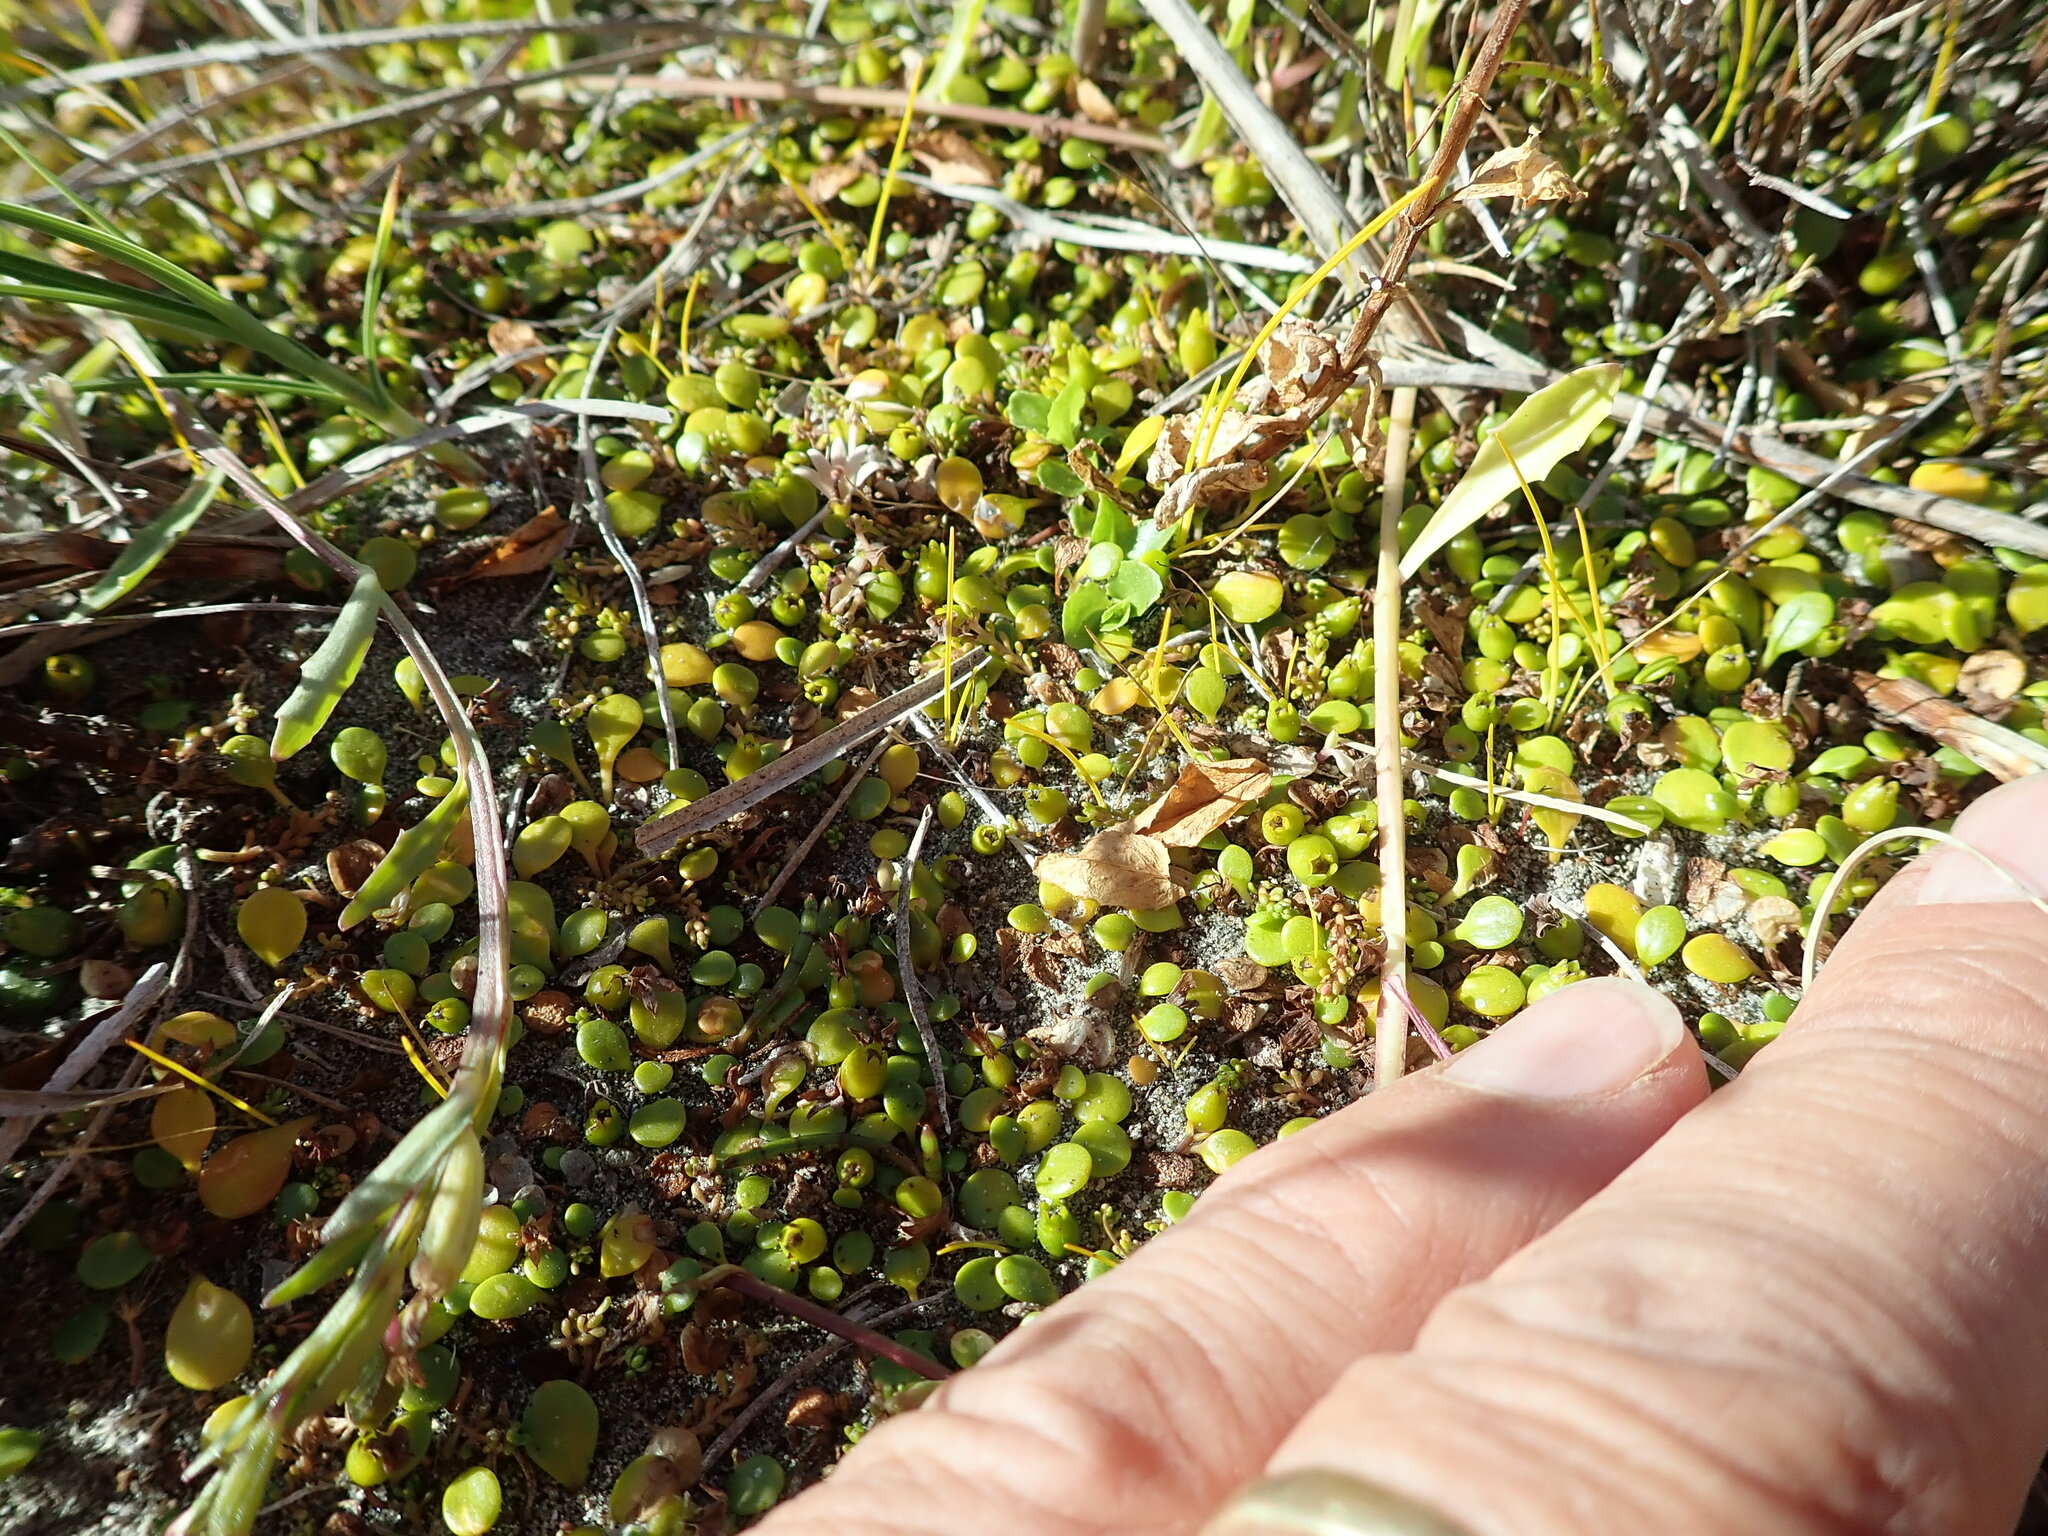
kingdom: Plantae
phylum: Tracheophyta
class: Magnoliopsida
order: Myrtales
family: Onagraceae
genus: Epilobium
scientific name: Epilobium billardiereanum
